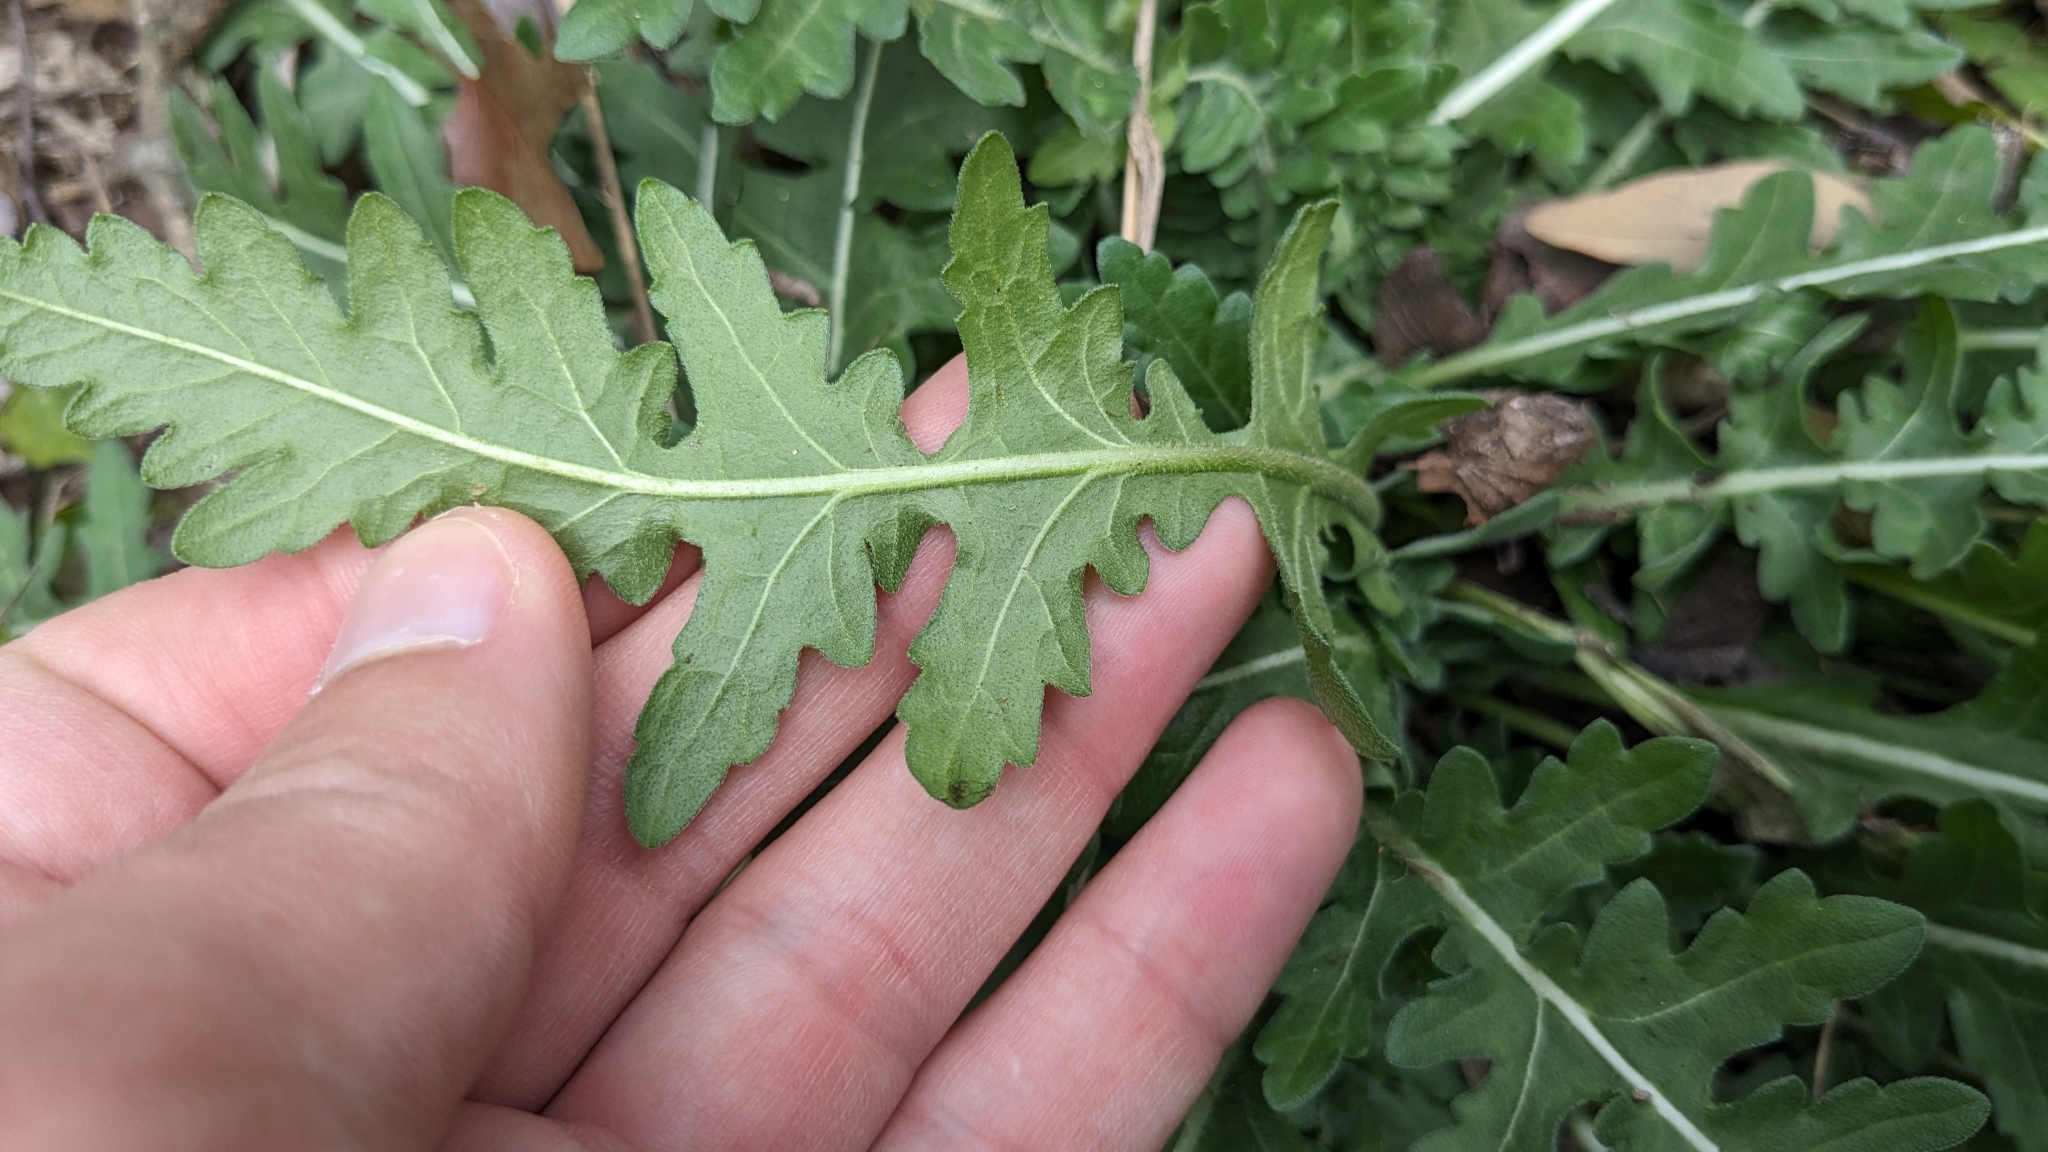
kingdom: Plantae
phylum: Tracheophyta
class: Magnoliopsida
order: Asterales
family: Asteraceae
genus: Engelmannia
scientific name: Engelmannia peristenia
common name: Engelmann's daisy
